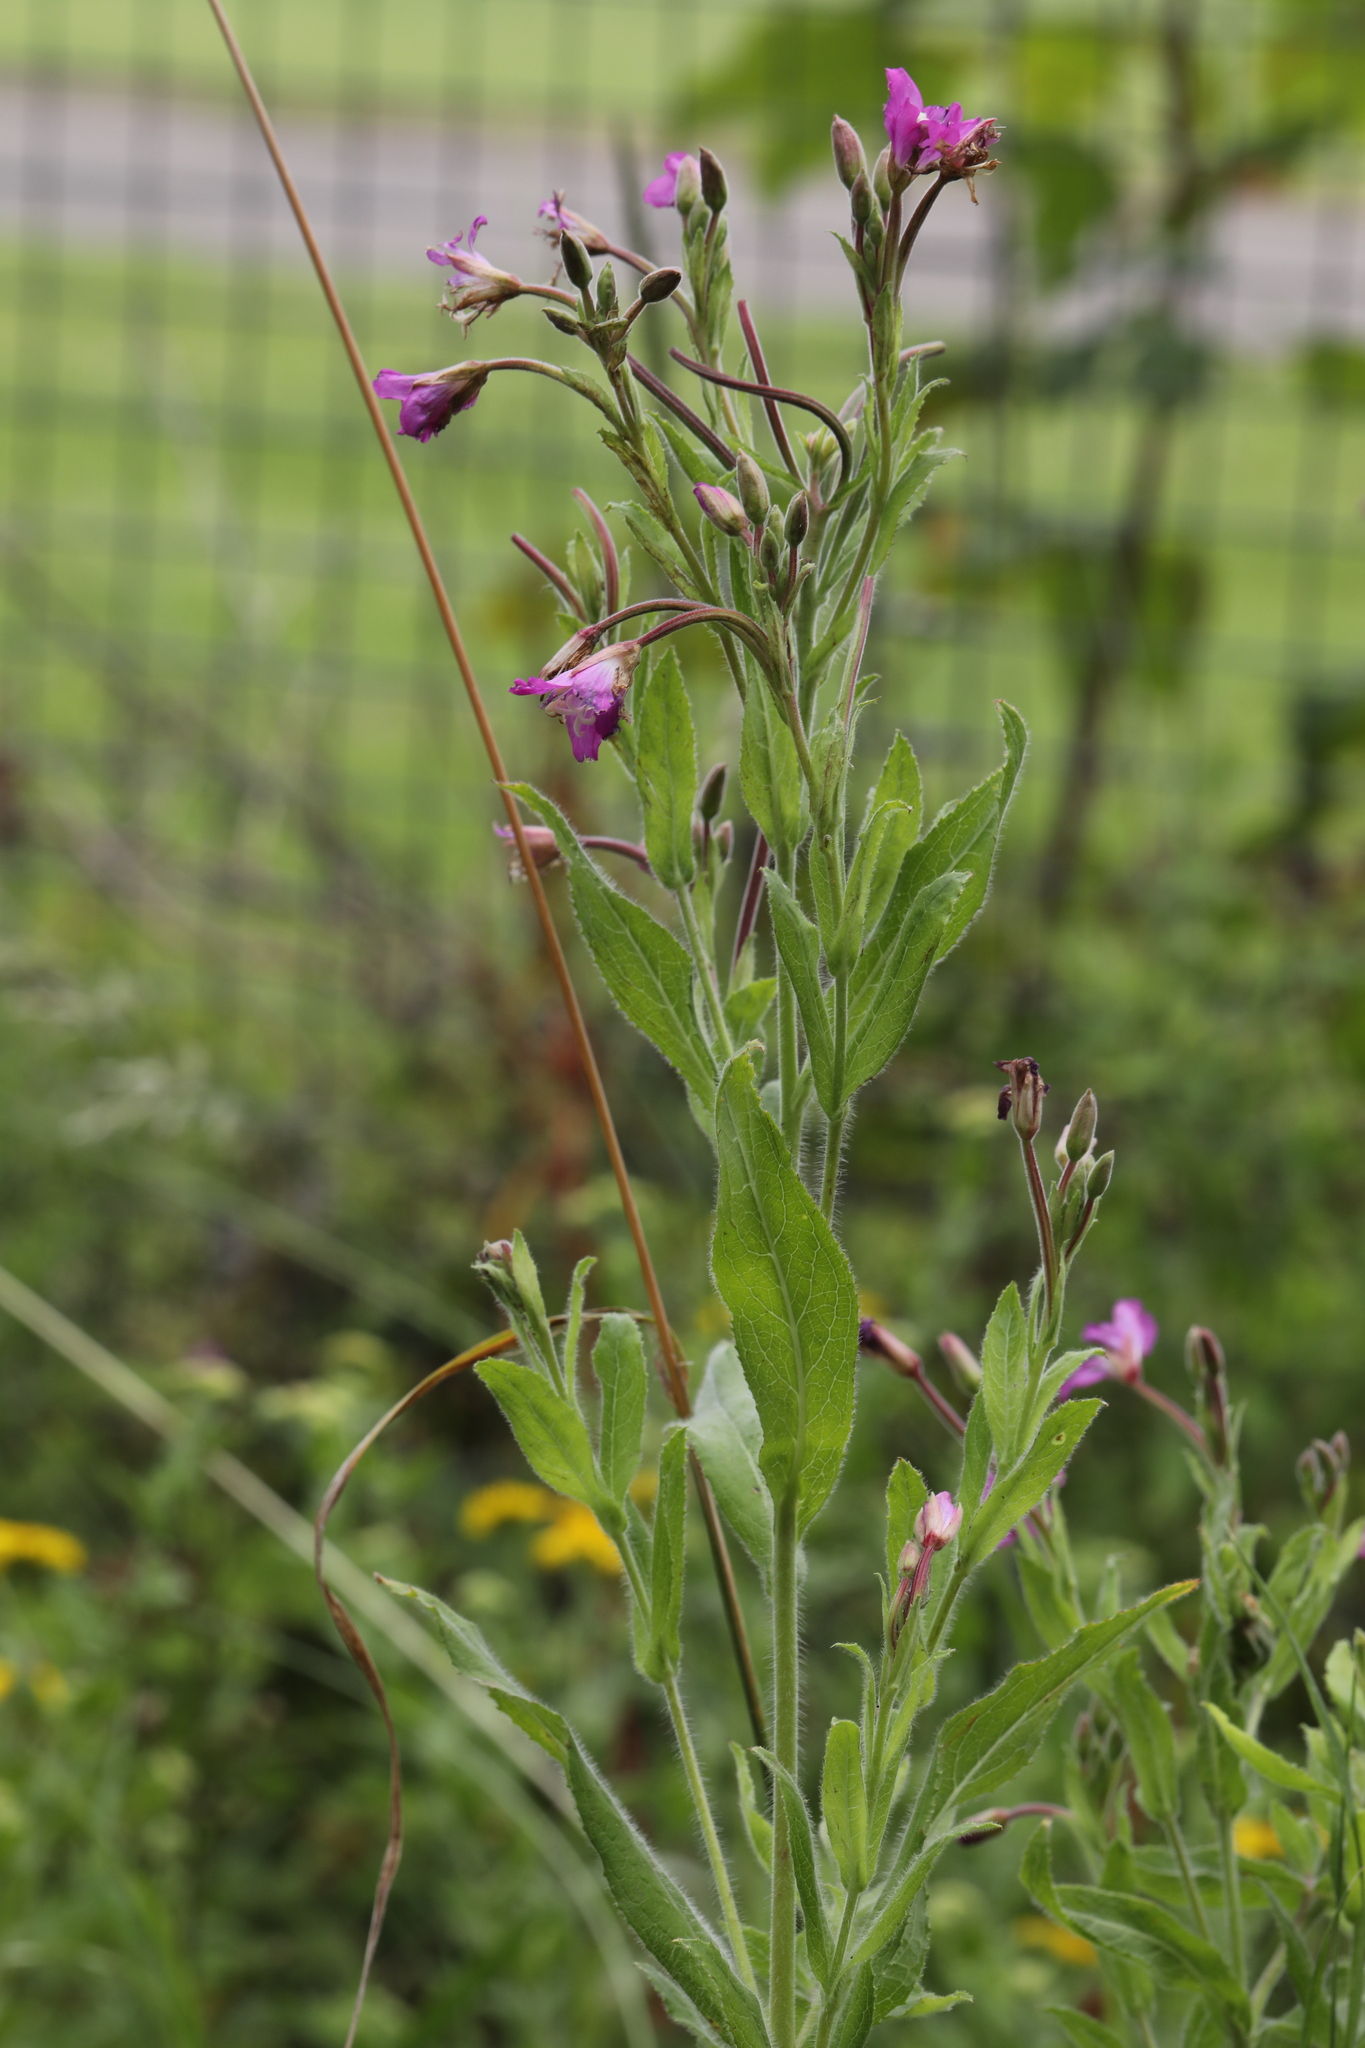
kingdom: Plantae
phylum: Tracheophyta
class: Magnoliopsida
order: Myrtales
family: Onagraceae
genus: Epilobium
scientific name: Epilobium hirsutum
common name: Great willowherb
